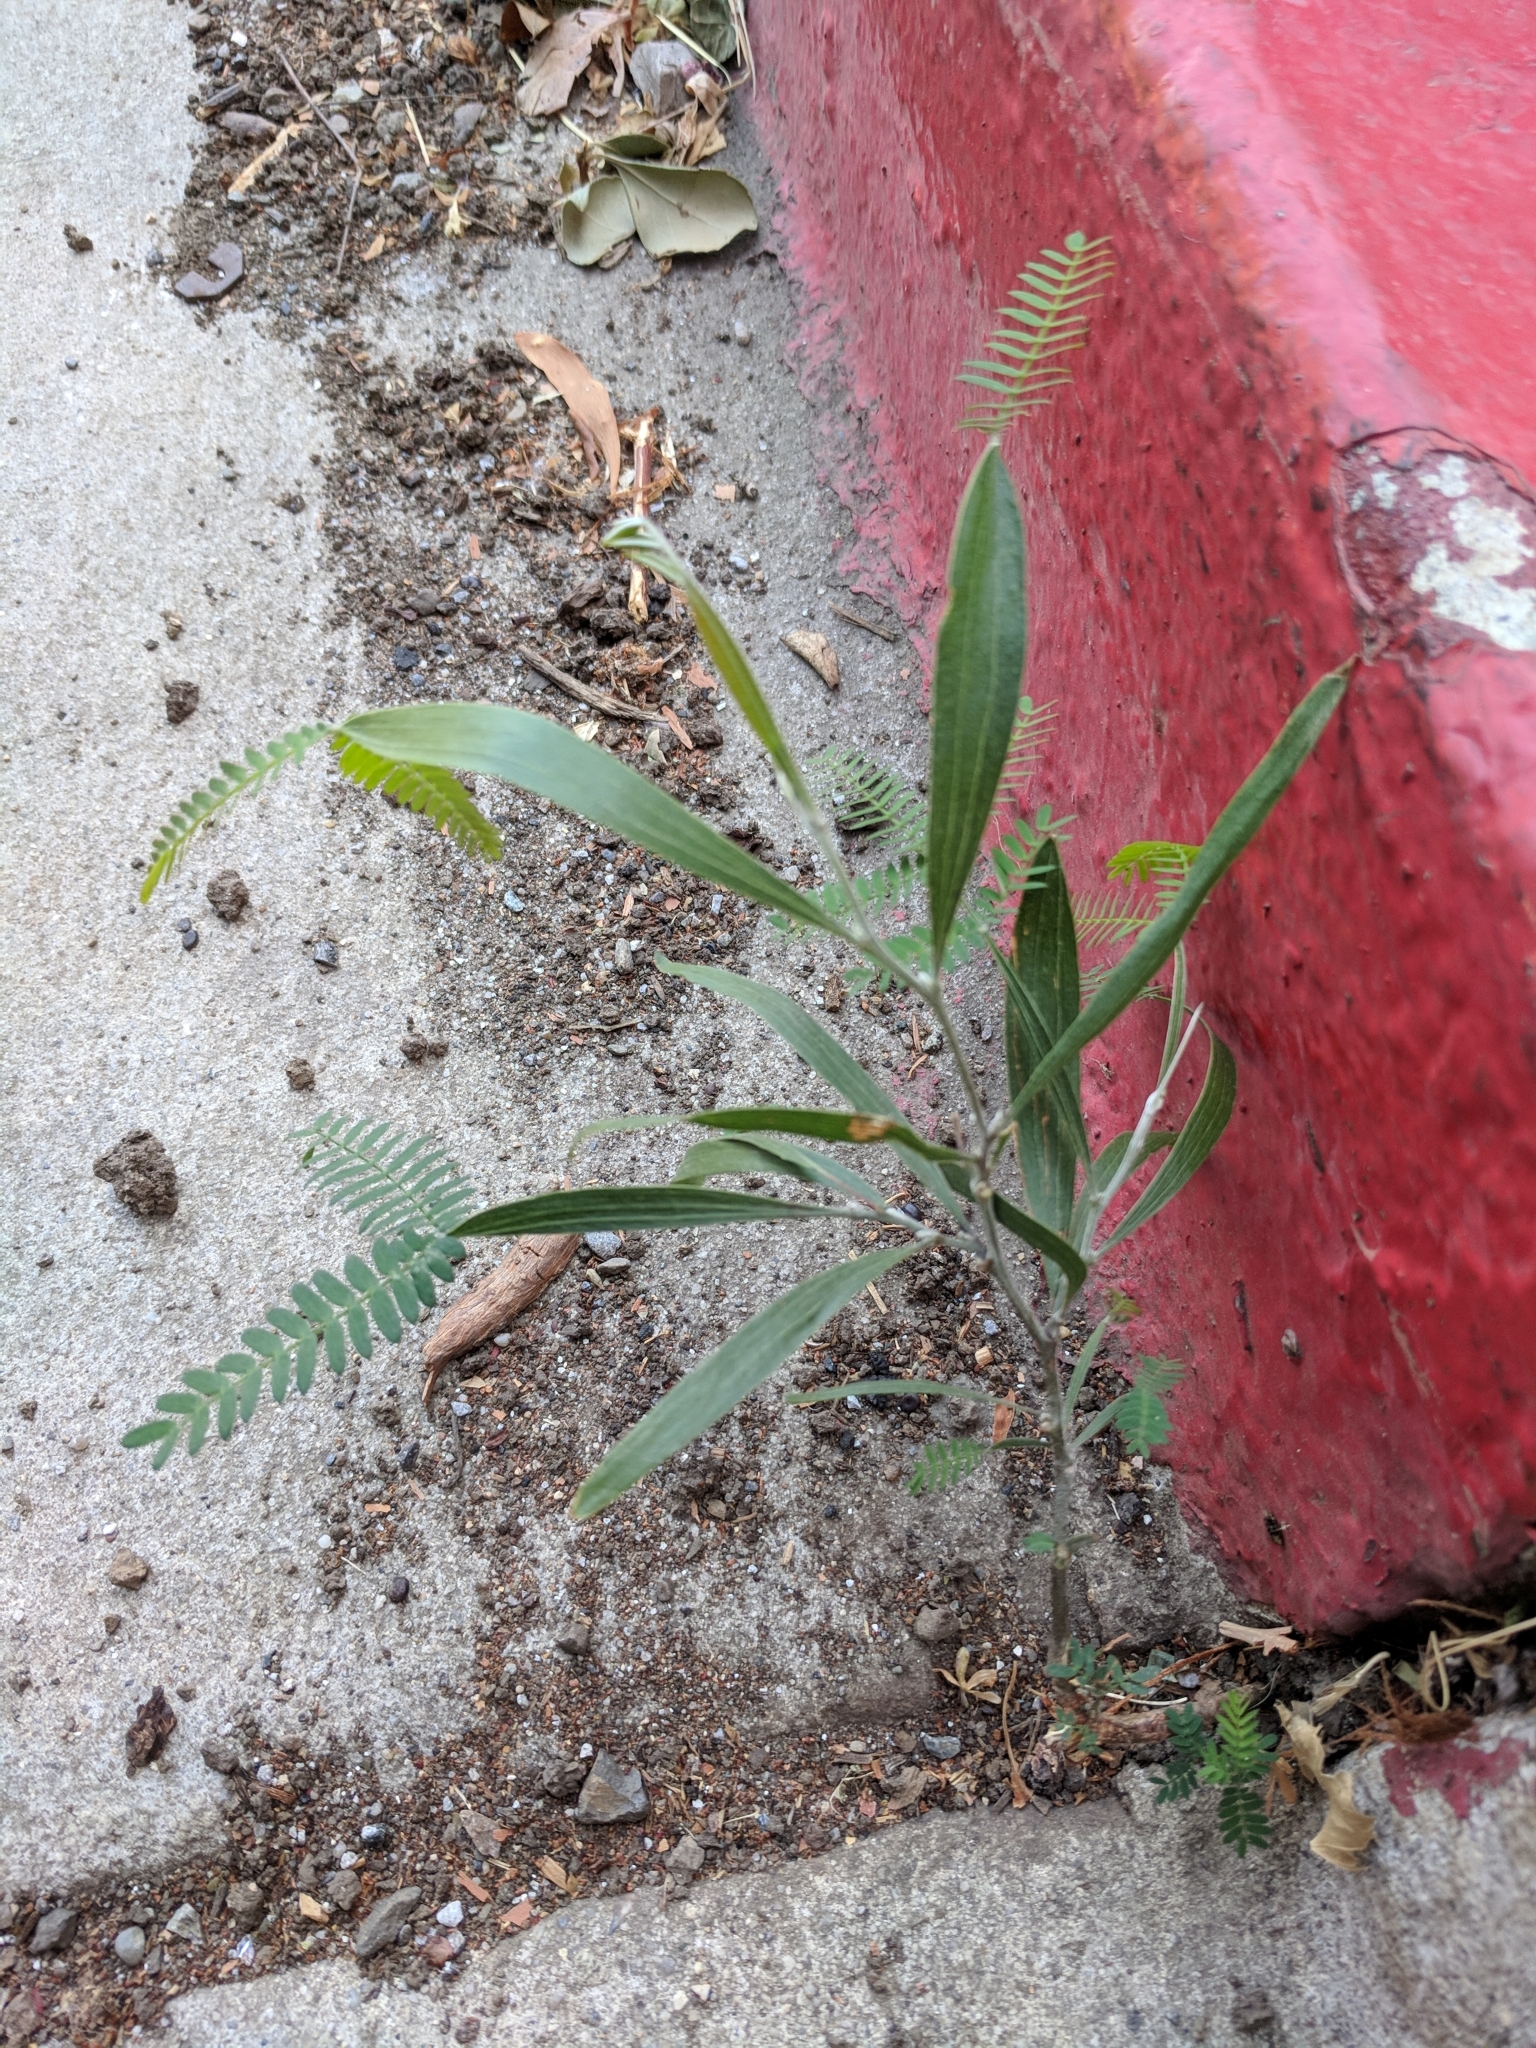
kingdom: Plantae
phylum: Tracheophyta
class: Magnoliopsida
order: Fabales
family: Fabaceae
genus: Acacia
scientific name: Acacia melanoxylon
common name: Blackwood
